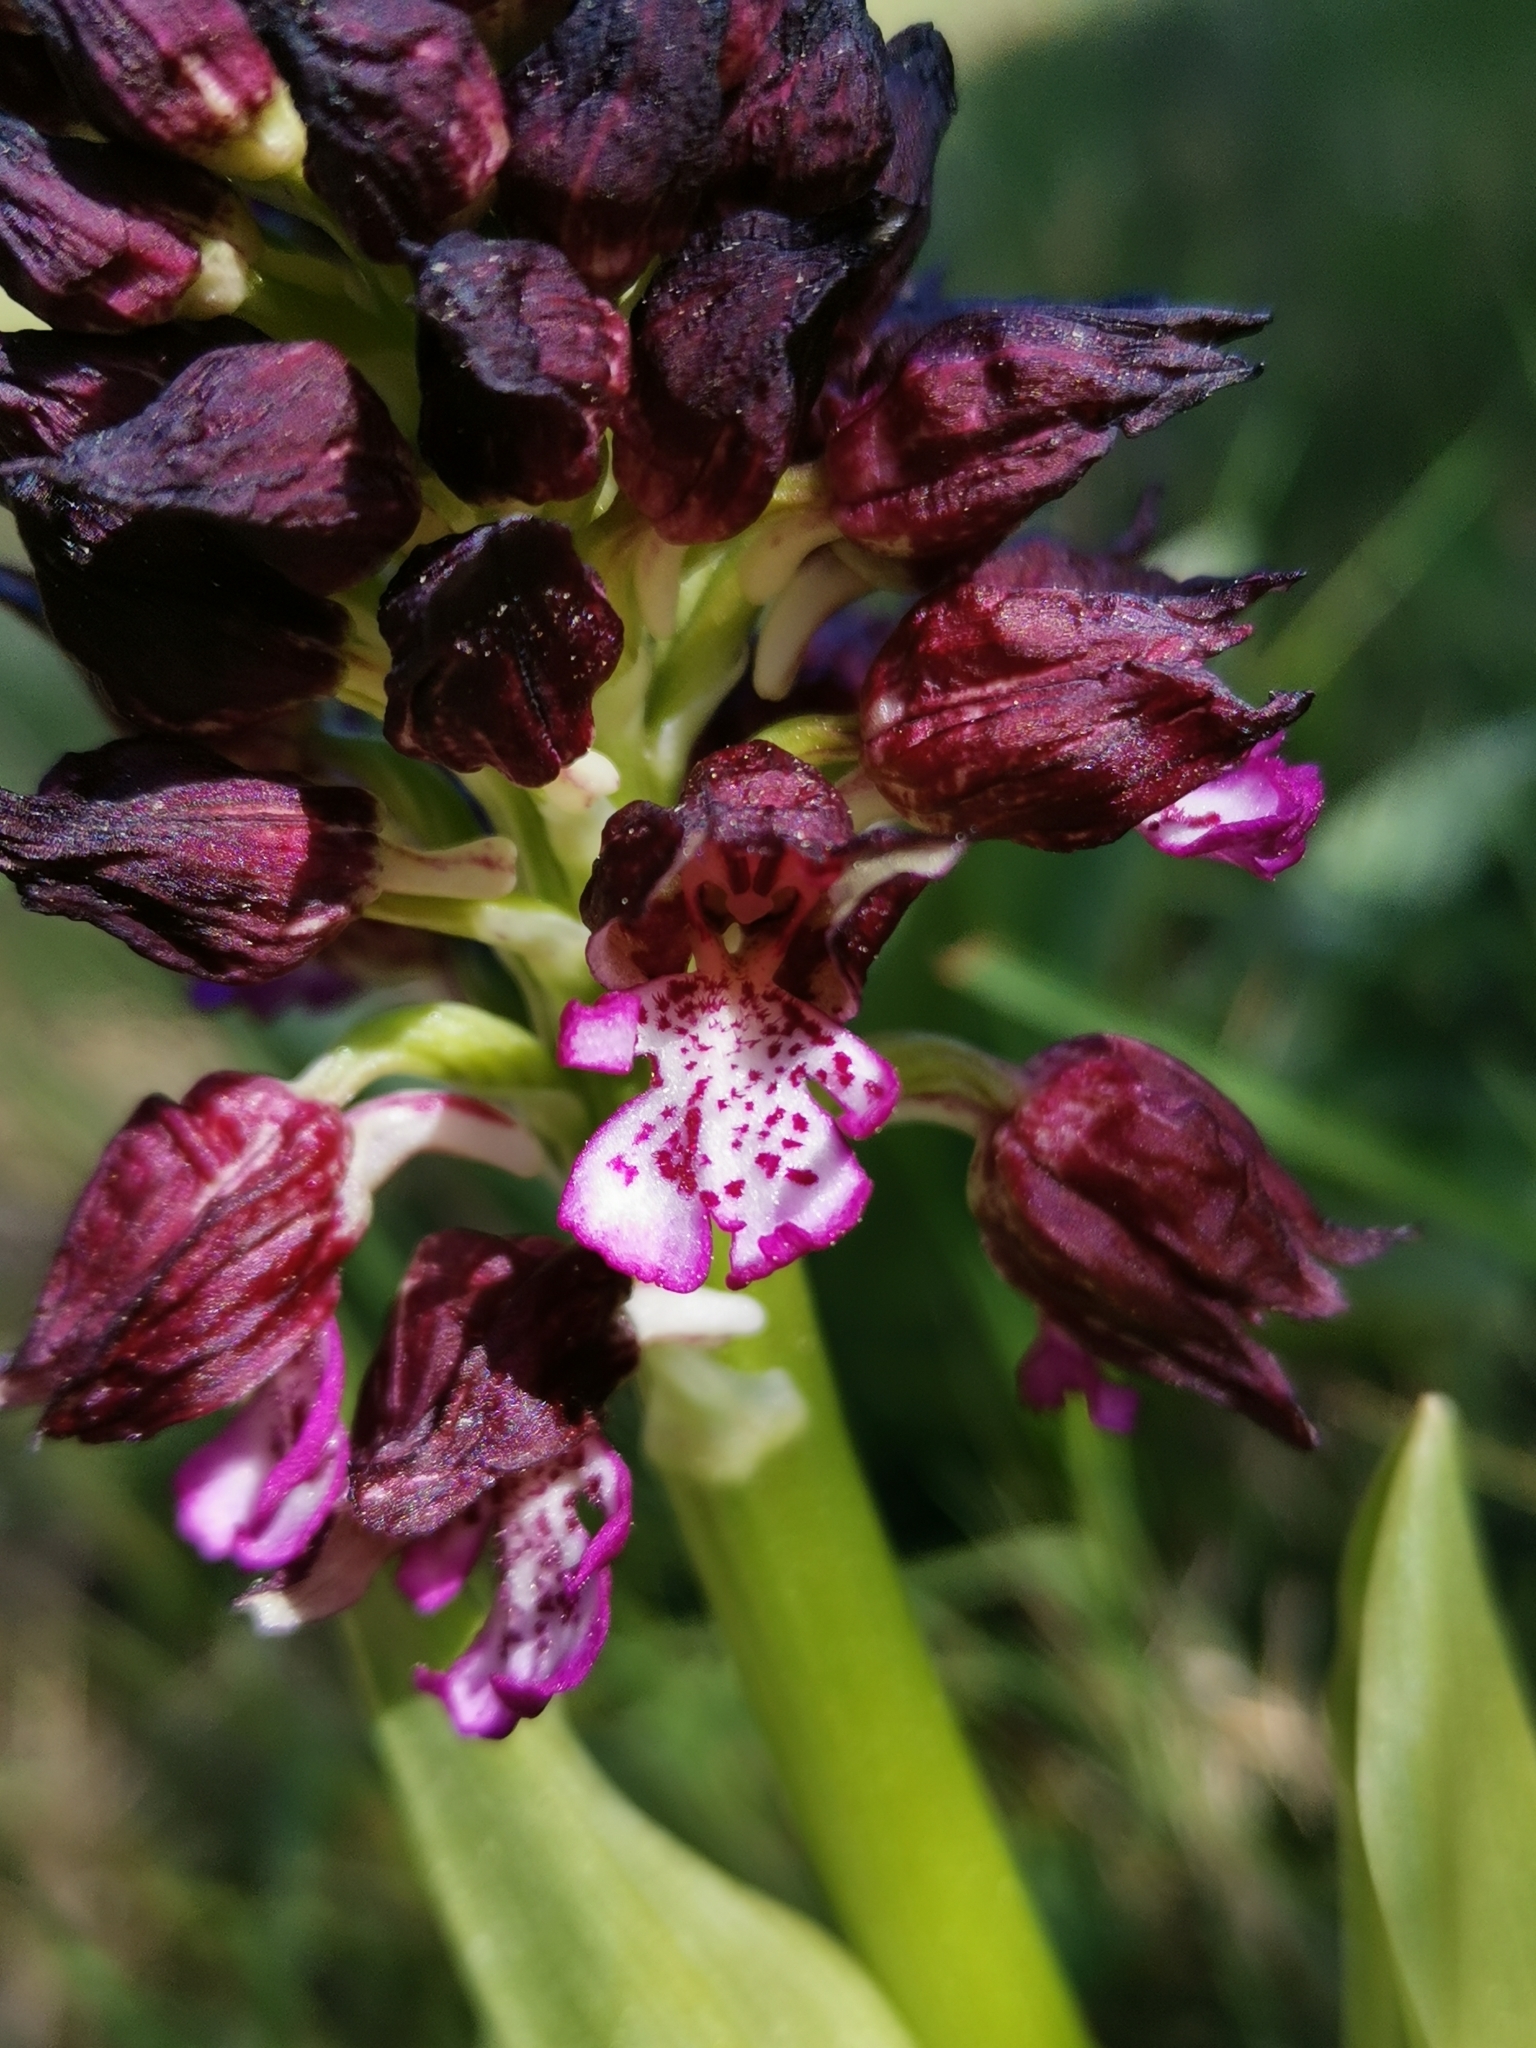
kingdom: Plantae
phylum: Tracheophyta
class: Liliopsida
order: Asparagales
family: Orchidaceae
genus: Orchis
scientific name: Orchis purpurea
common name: Lady orchid
